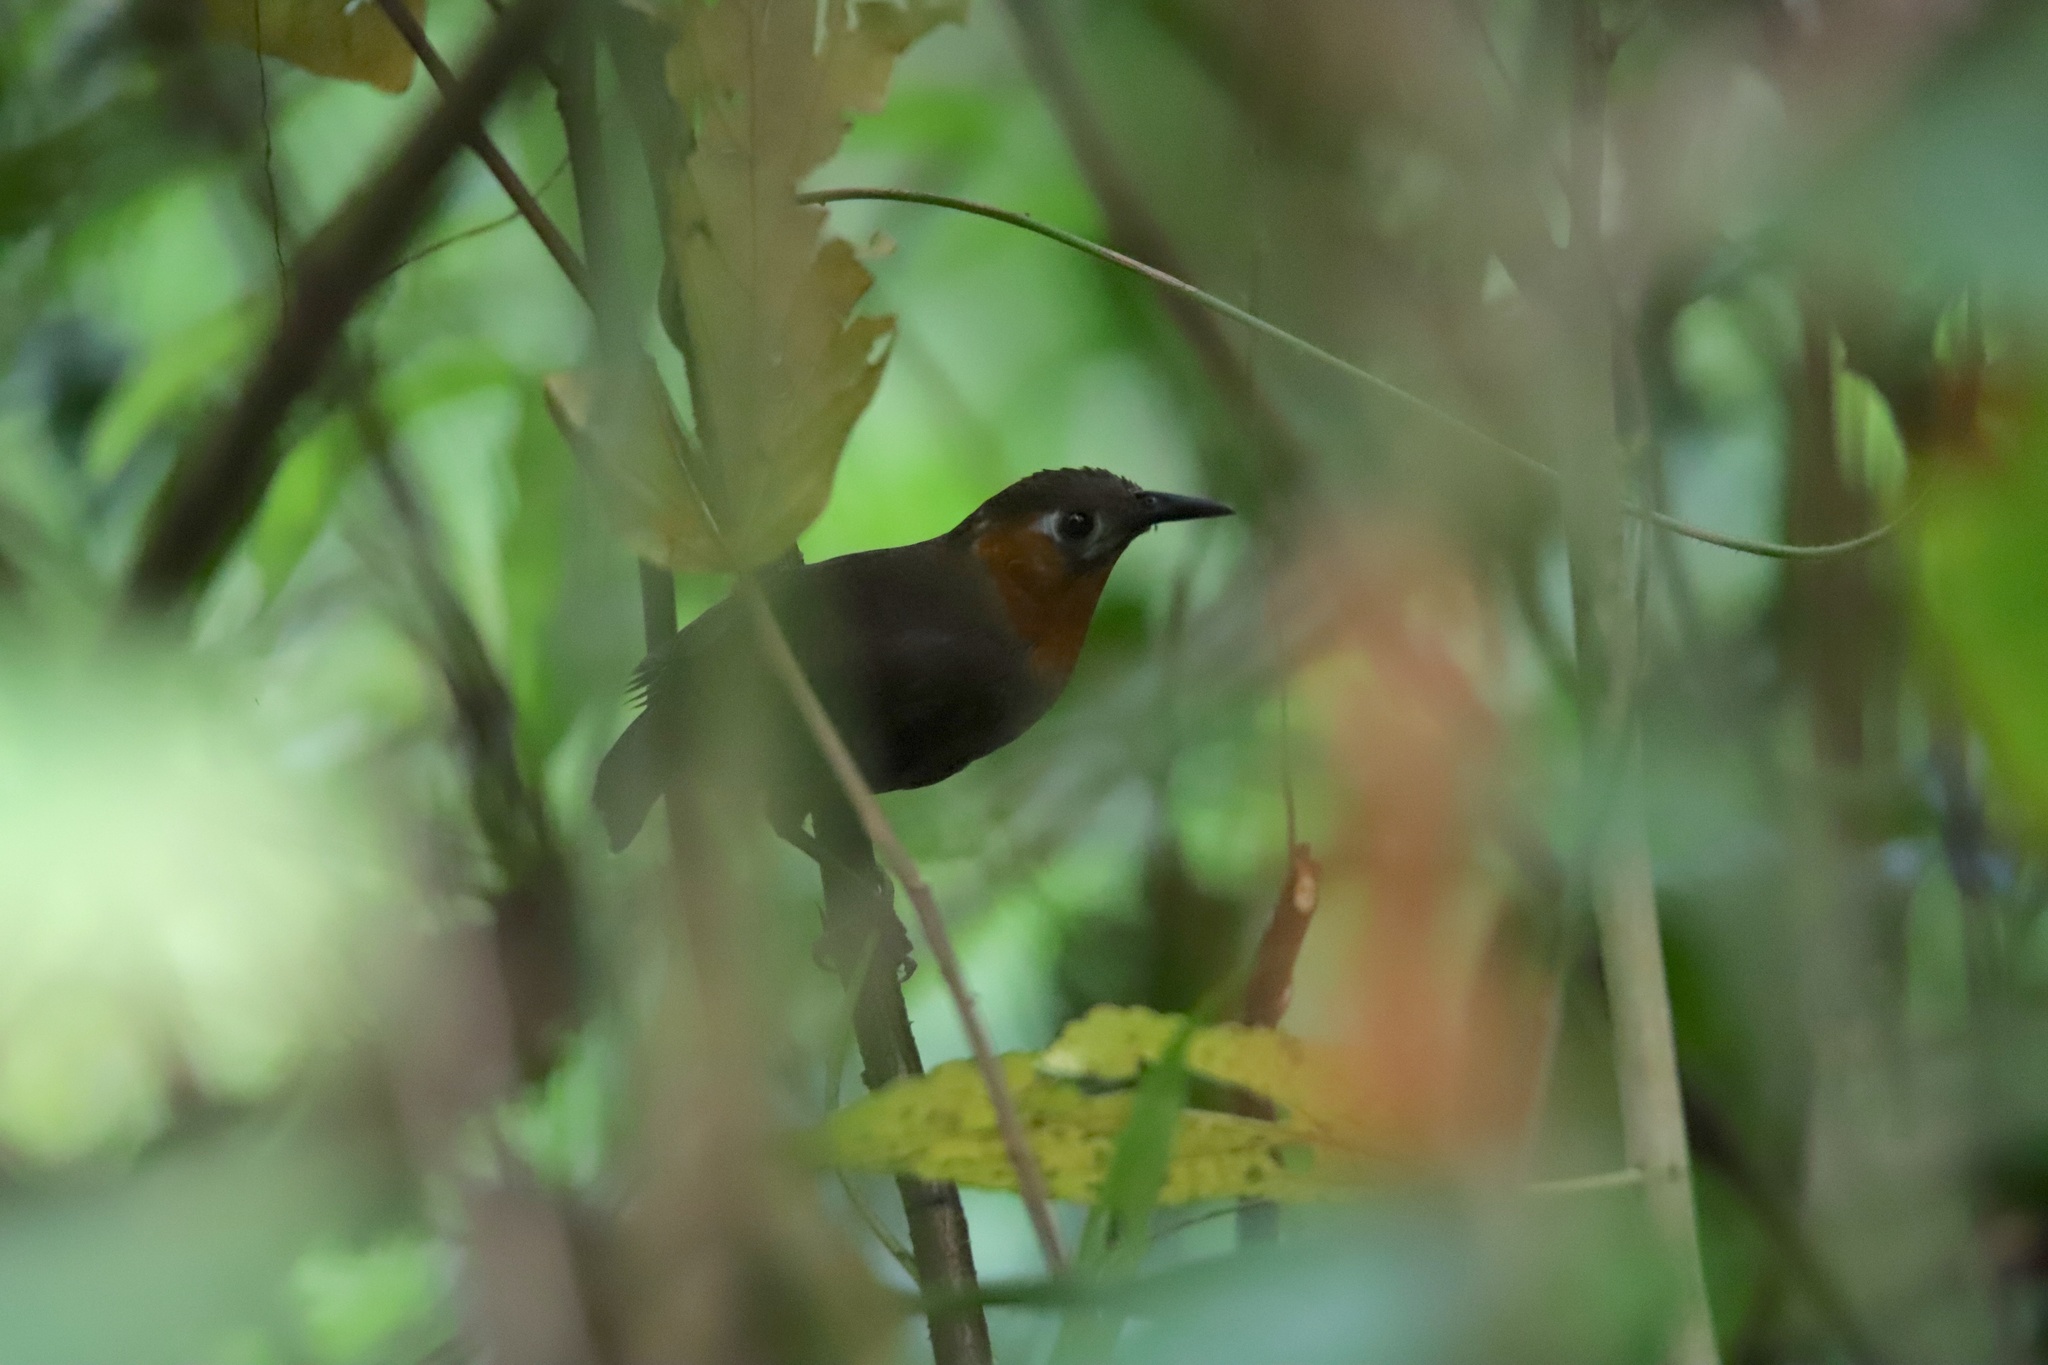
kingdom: Animalia
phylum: Chordata
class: Aves
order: Passeriformes
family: Troglodytidae
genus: Cyphorhinus
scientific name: Cyphorhinus phaeocephalus
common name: Song wren
